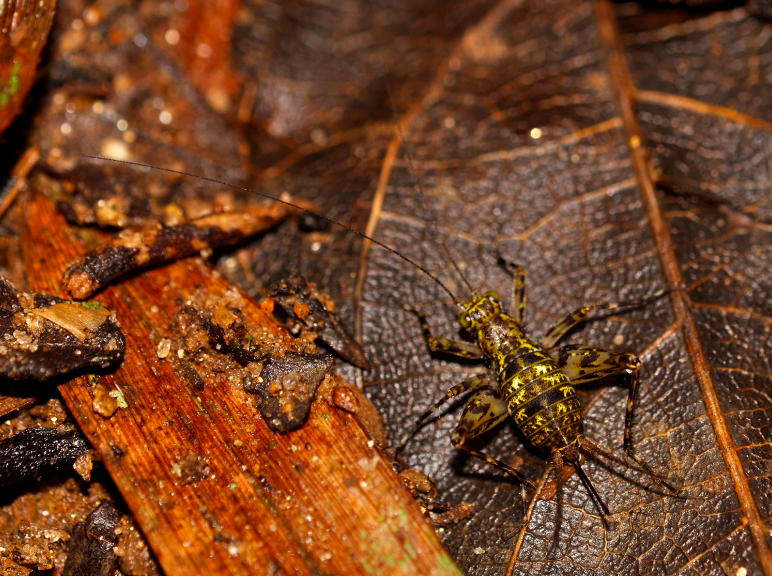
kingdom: Animalia
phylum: Arthropoda
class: Insecta
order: Orthoptera
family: Phalangopsidae
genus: Paragryllodes
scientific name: Paragryllodes annulipes
